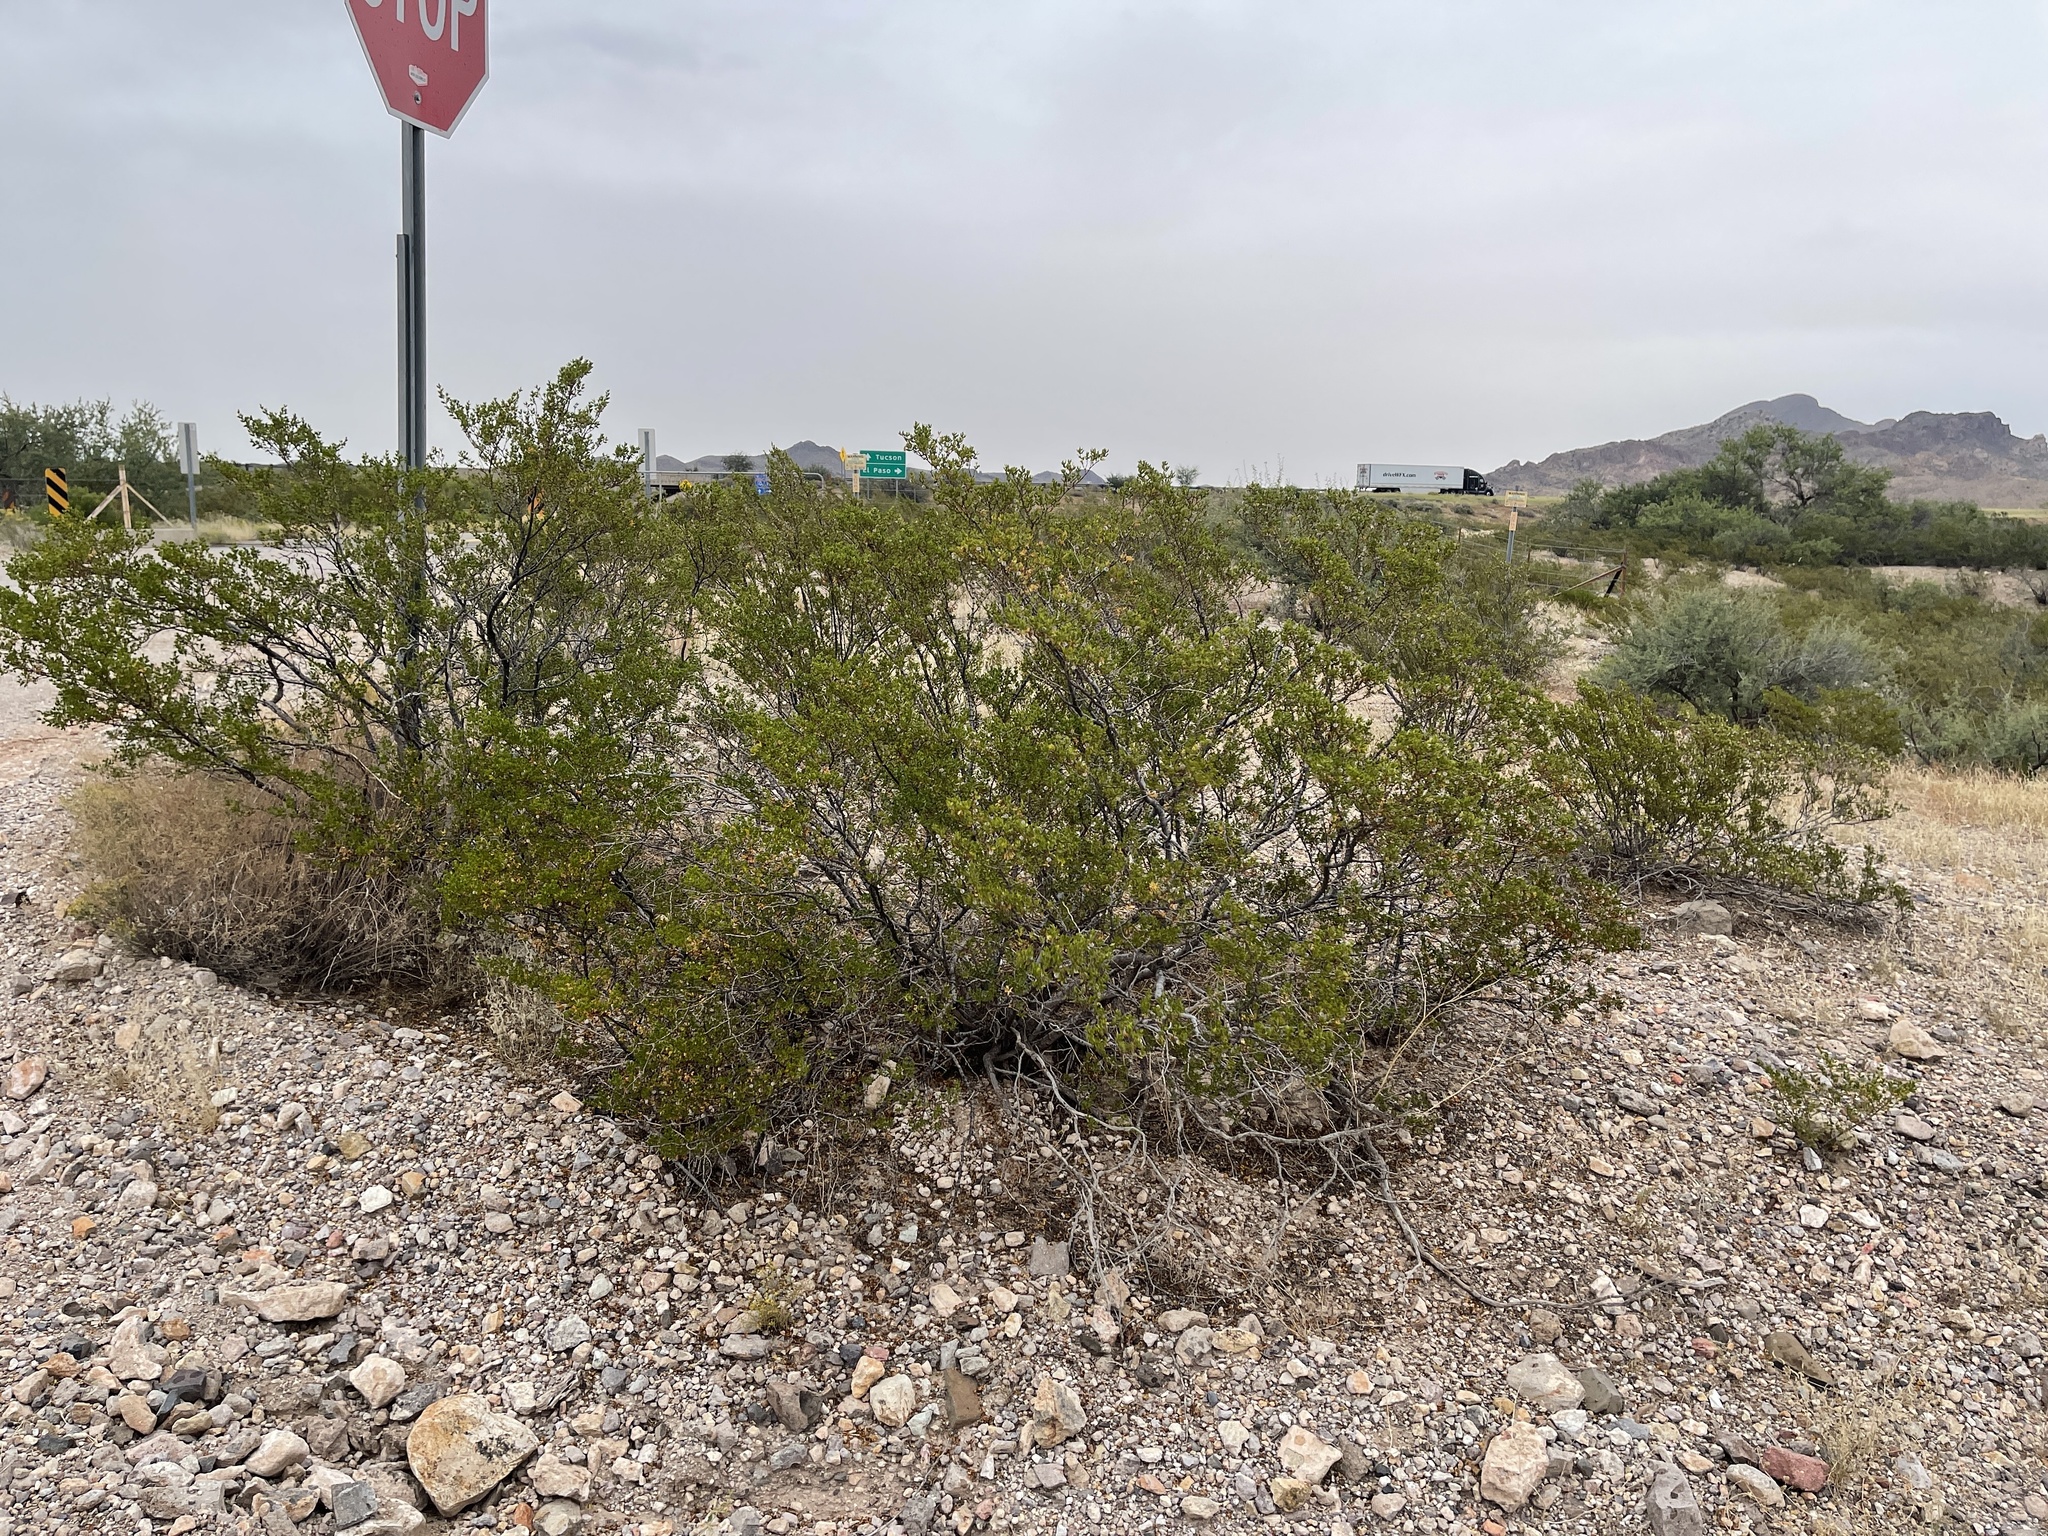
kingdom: Plantae
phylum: Tracheophyta
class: Magnoliopsida
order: Zygophyllales
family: Zygophyllaceae
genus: Larrea
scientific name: Larrea tridentata
